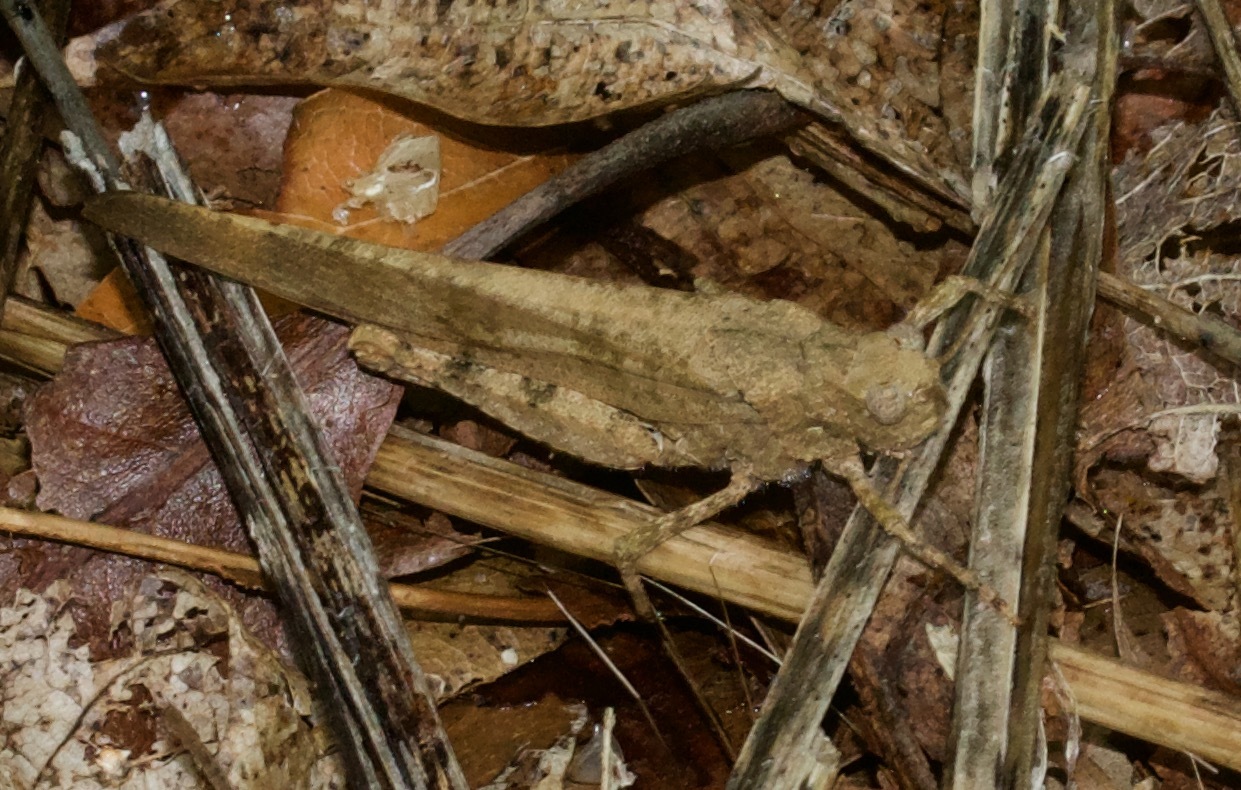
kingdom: Animalia
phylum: Arthropoda
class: Insecta
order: Orthoptera
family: Acrididae
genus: Dissosteira
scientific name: Dissosteira carolina
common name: Carolina grasshopper
